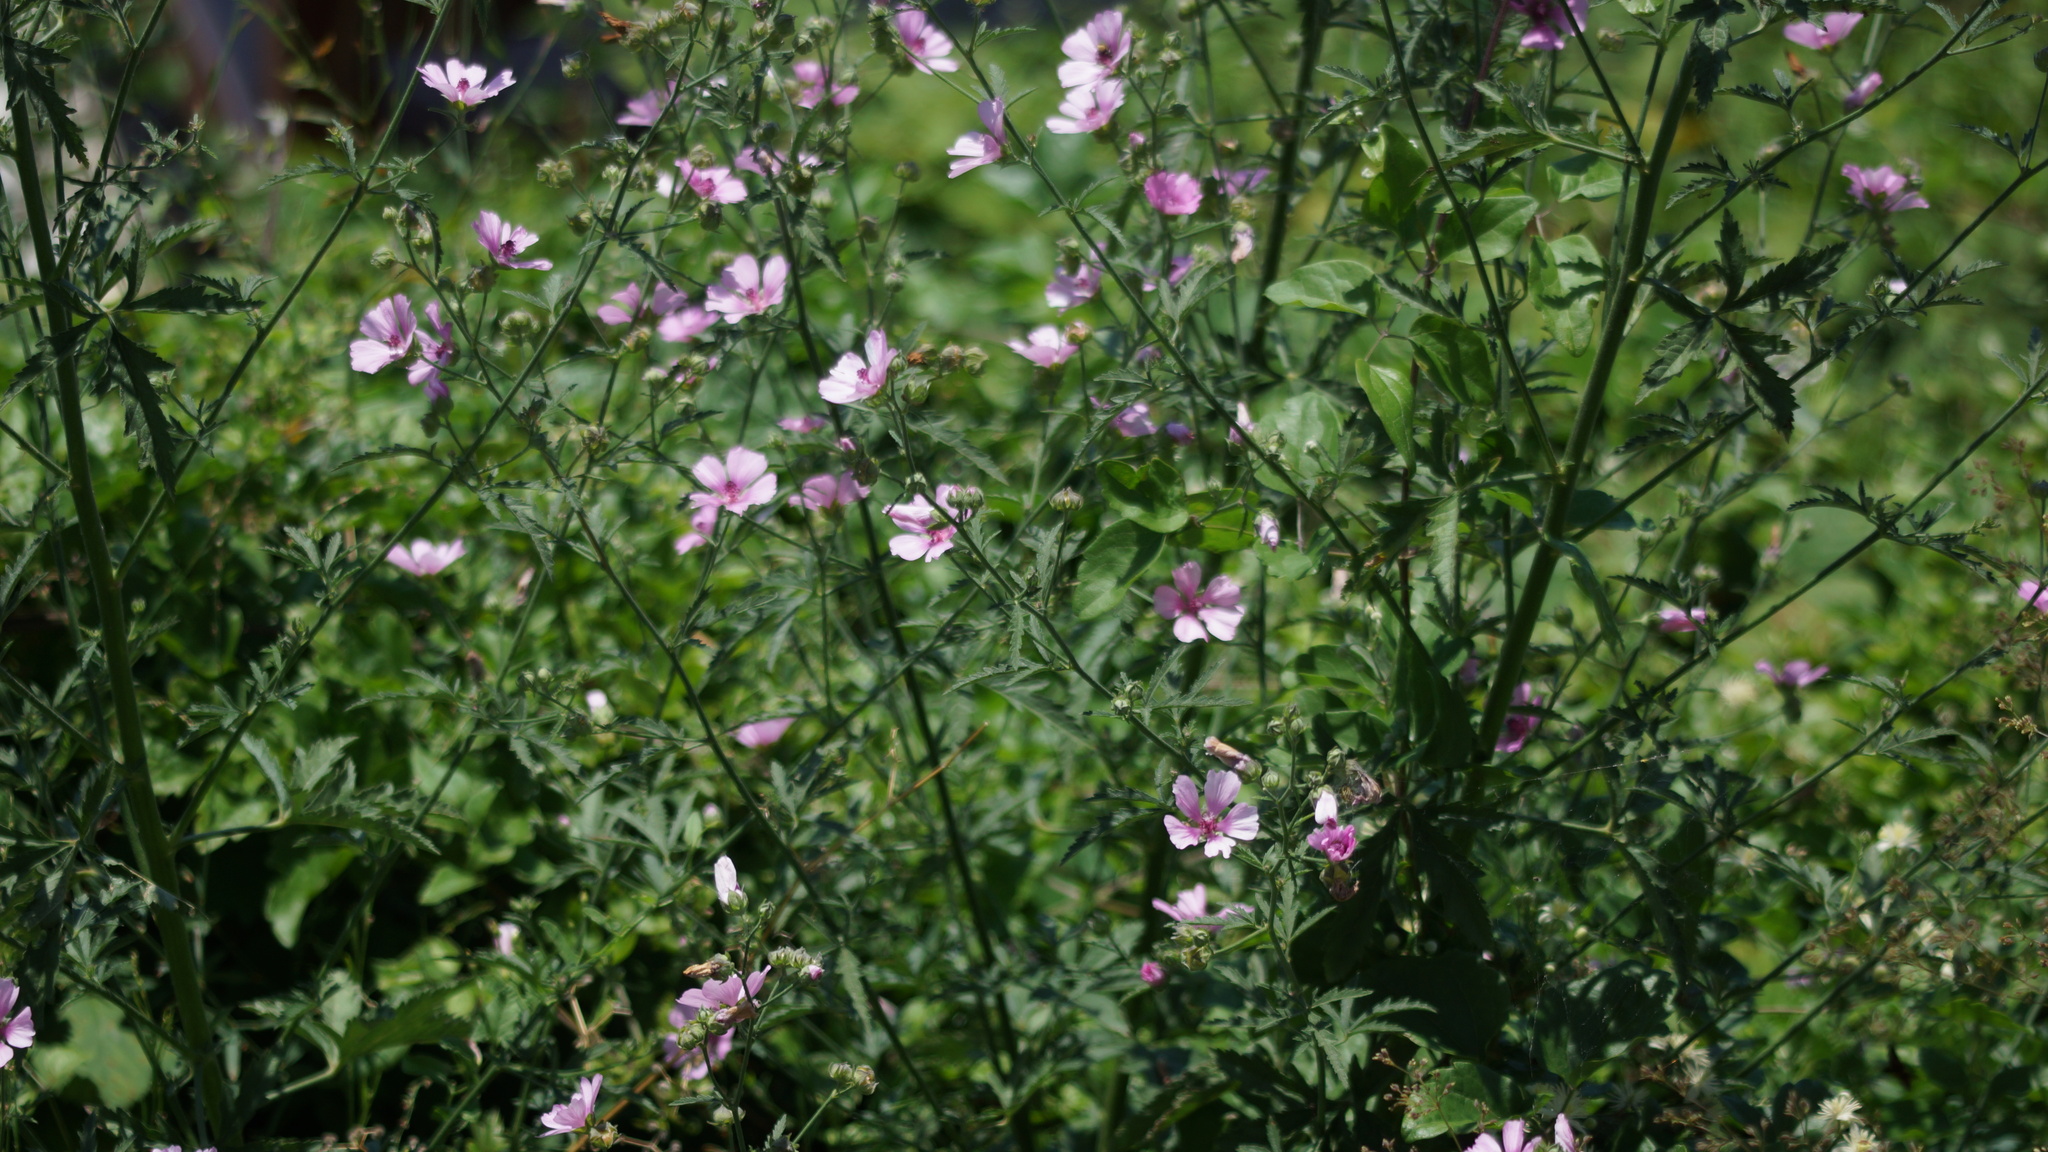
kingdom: Plantae
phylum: Tracheophyta
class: Magnoliopsida
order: Malvales
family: Malvaceae
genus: Althaea
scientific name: Althaea cannabina
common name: Palm-leaf marshmallow
